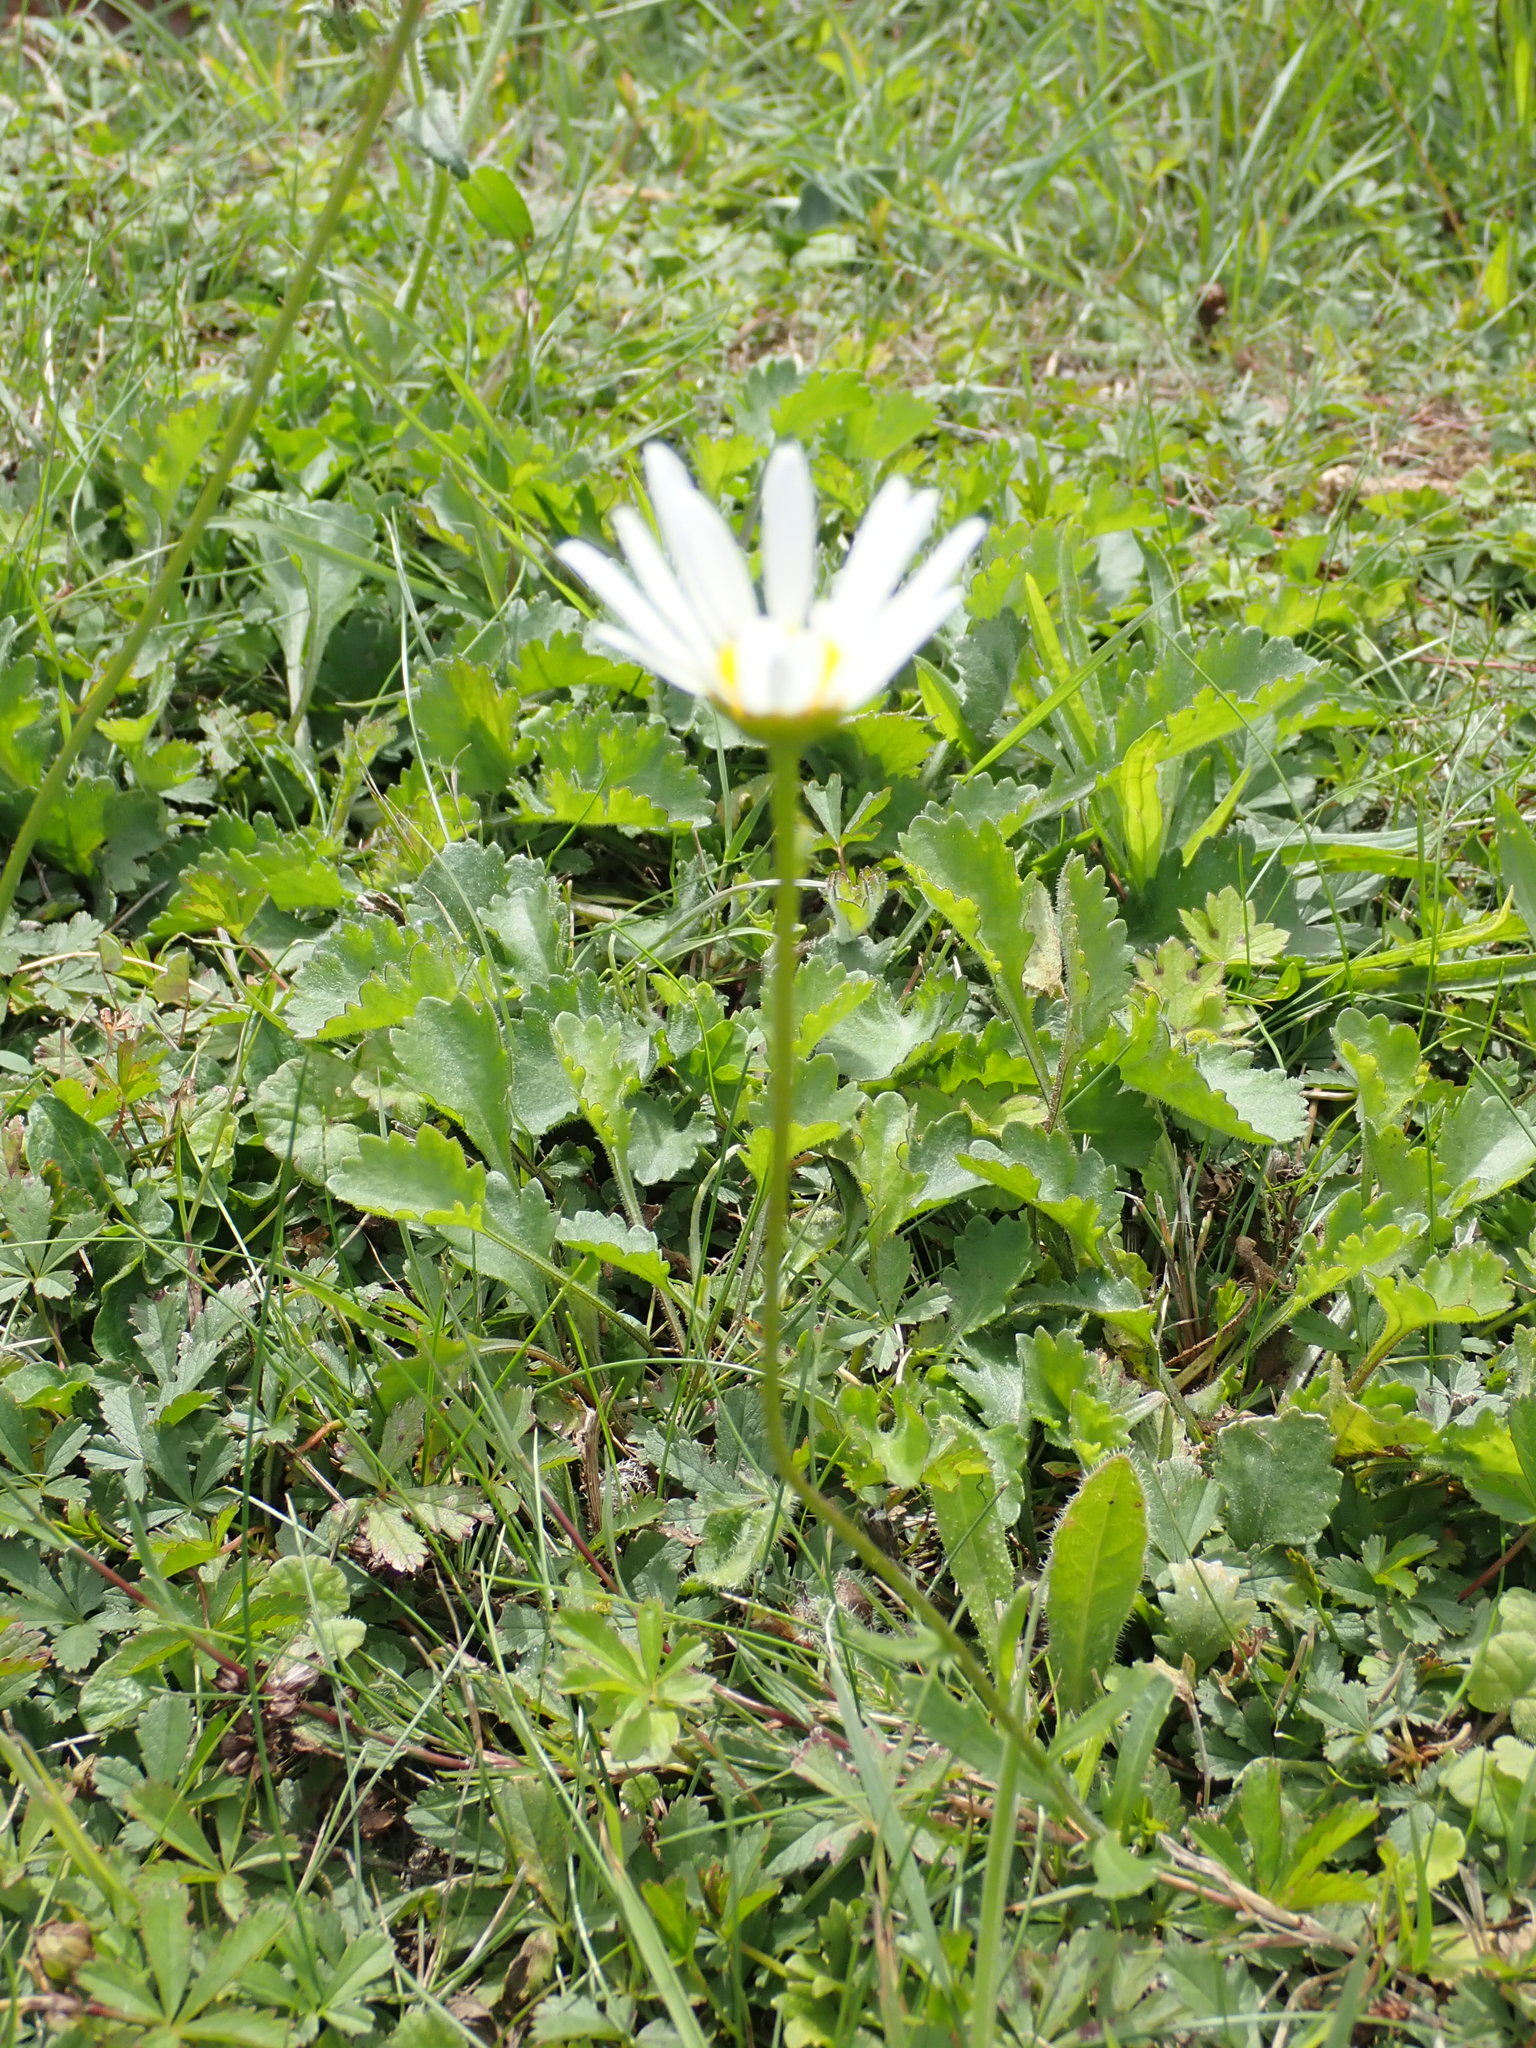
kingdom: Plantae
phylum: Tracheophyta
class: Magnoliopsida
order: Asterales
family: Asteraceae
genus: Leucanthemum
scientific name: Leucanthemum vulgare
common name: Oxeye daisy
